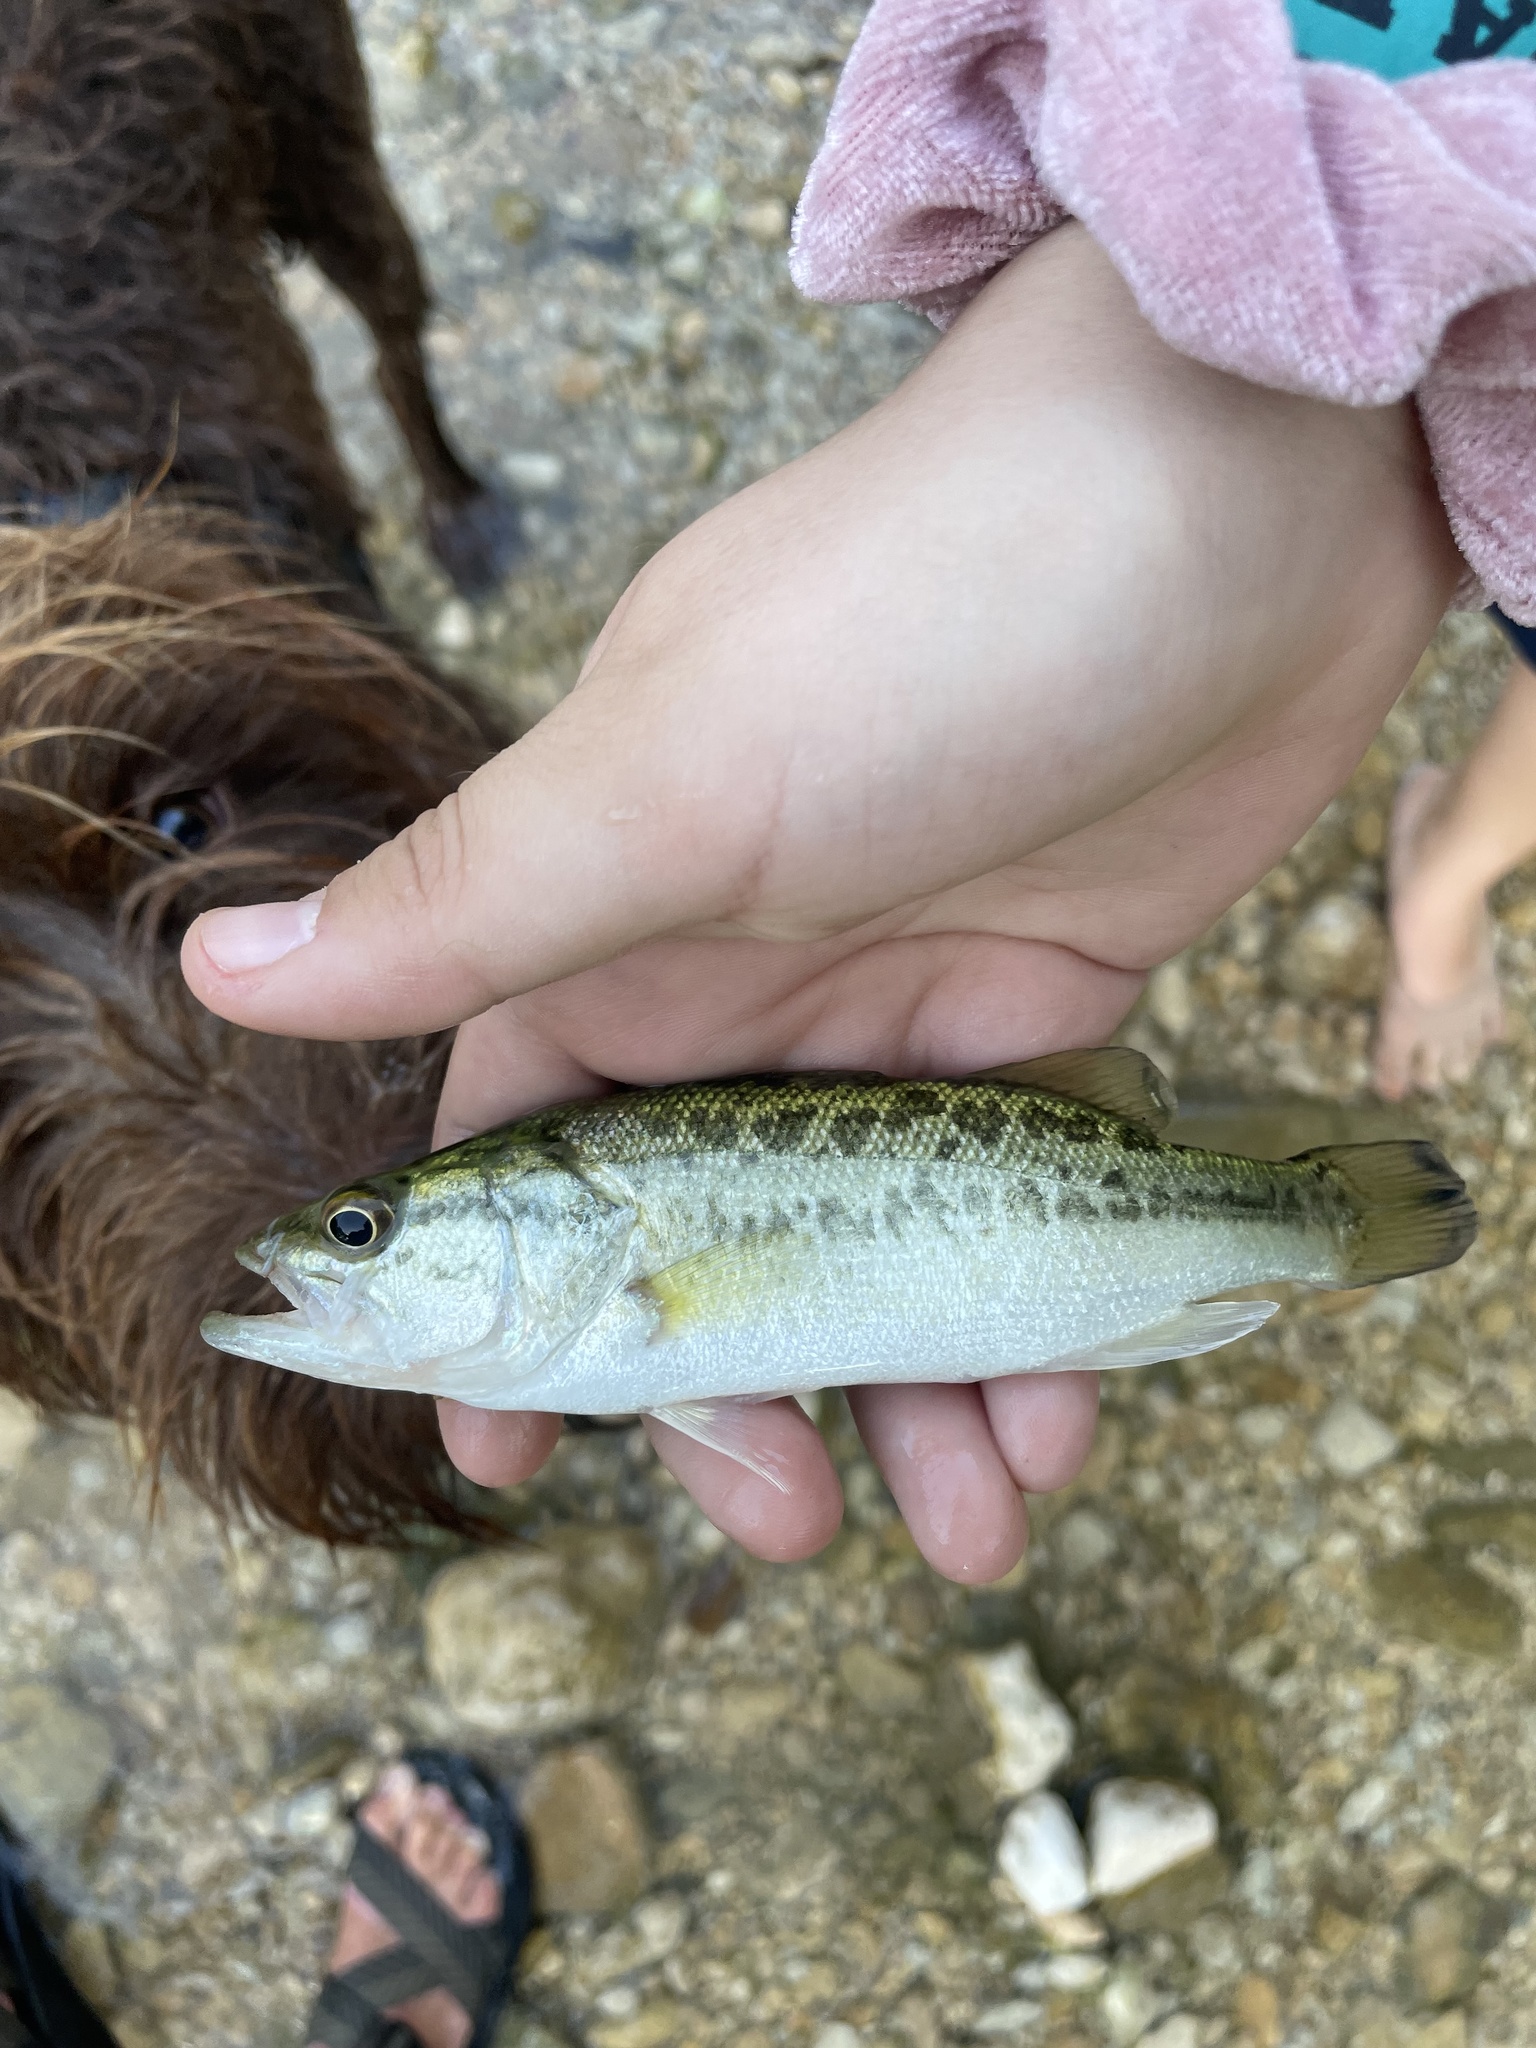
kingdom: Animalia
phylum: Chordata
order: Perciformes
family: Centrarchidae
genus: Micropterus
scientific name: Micropterus
